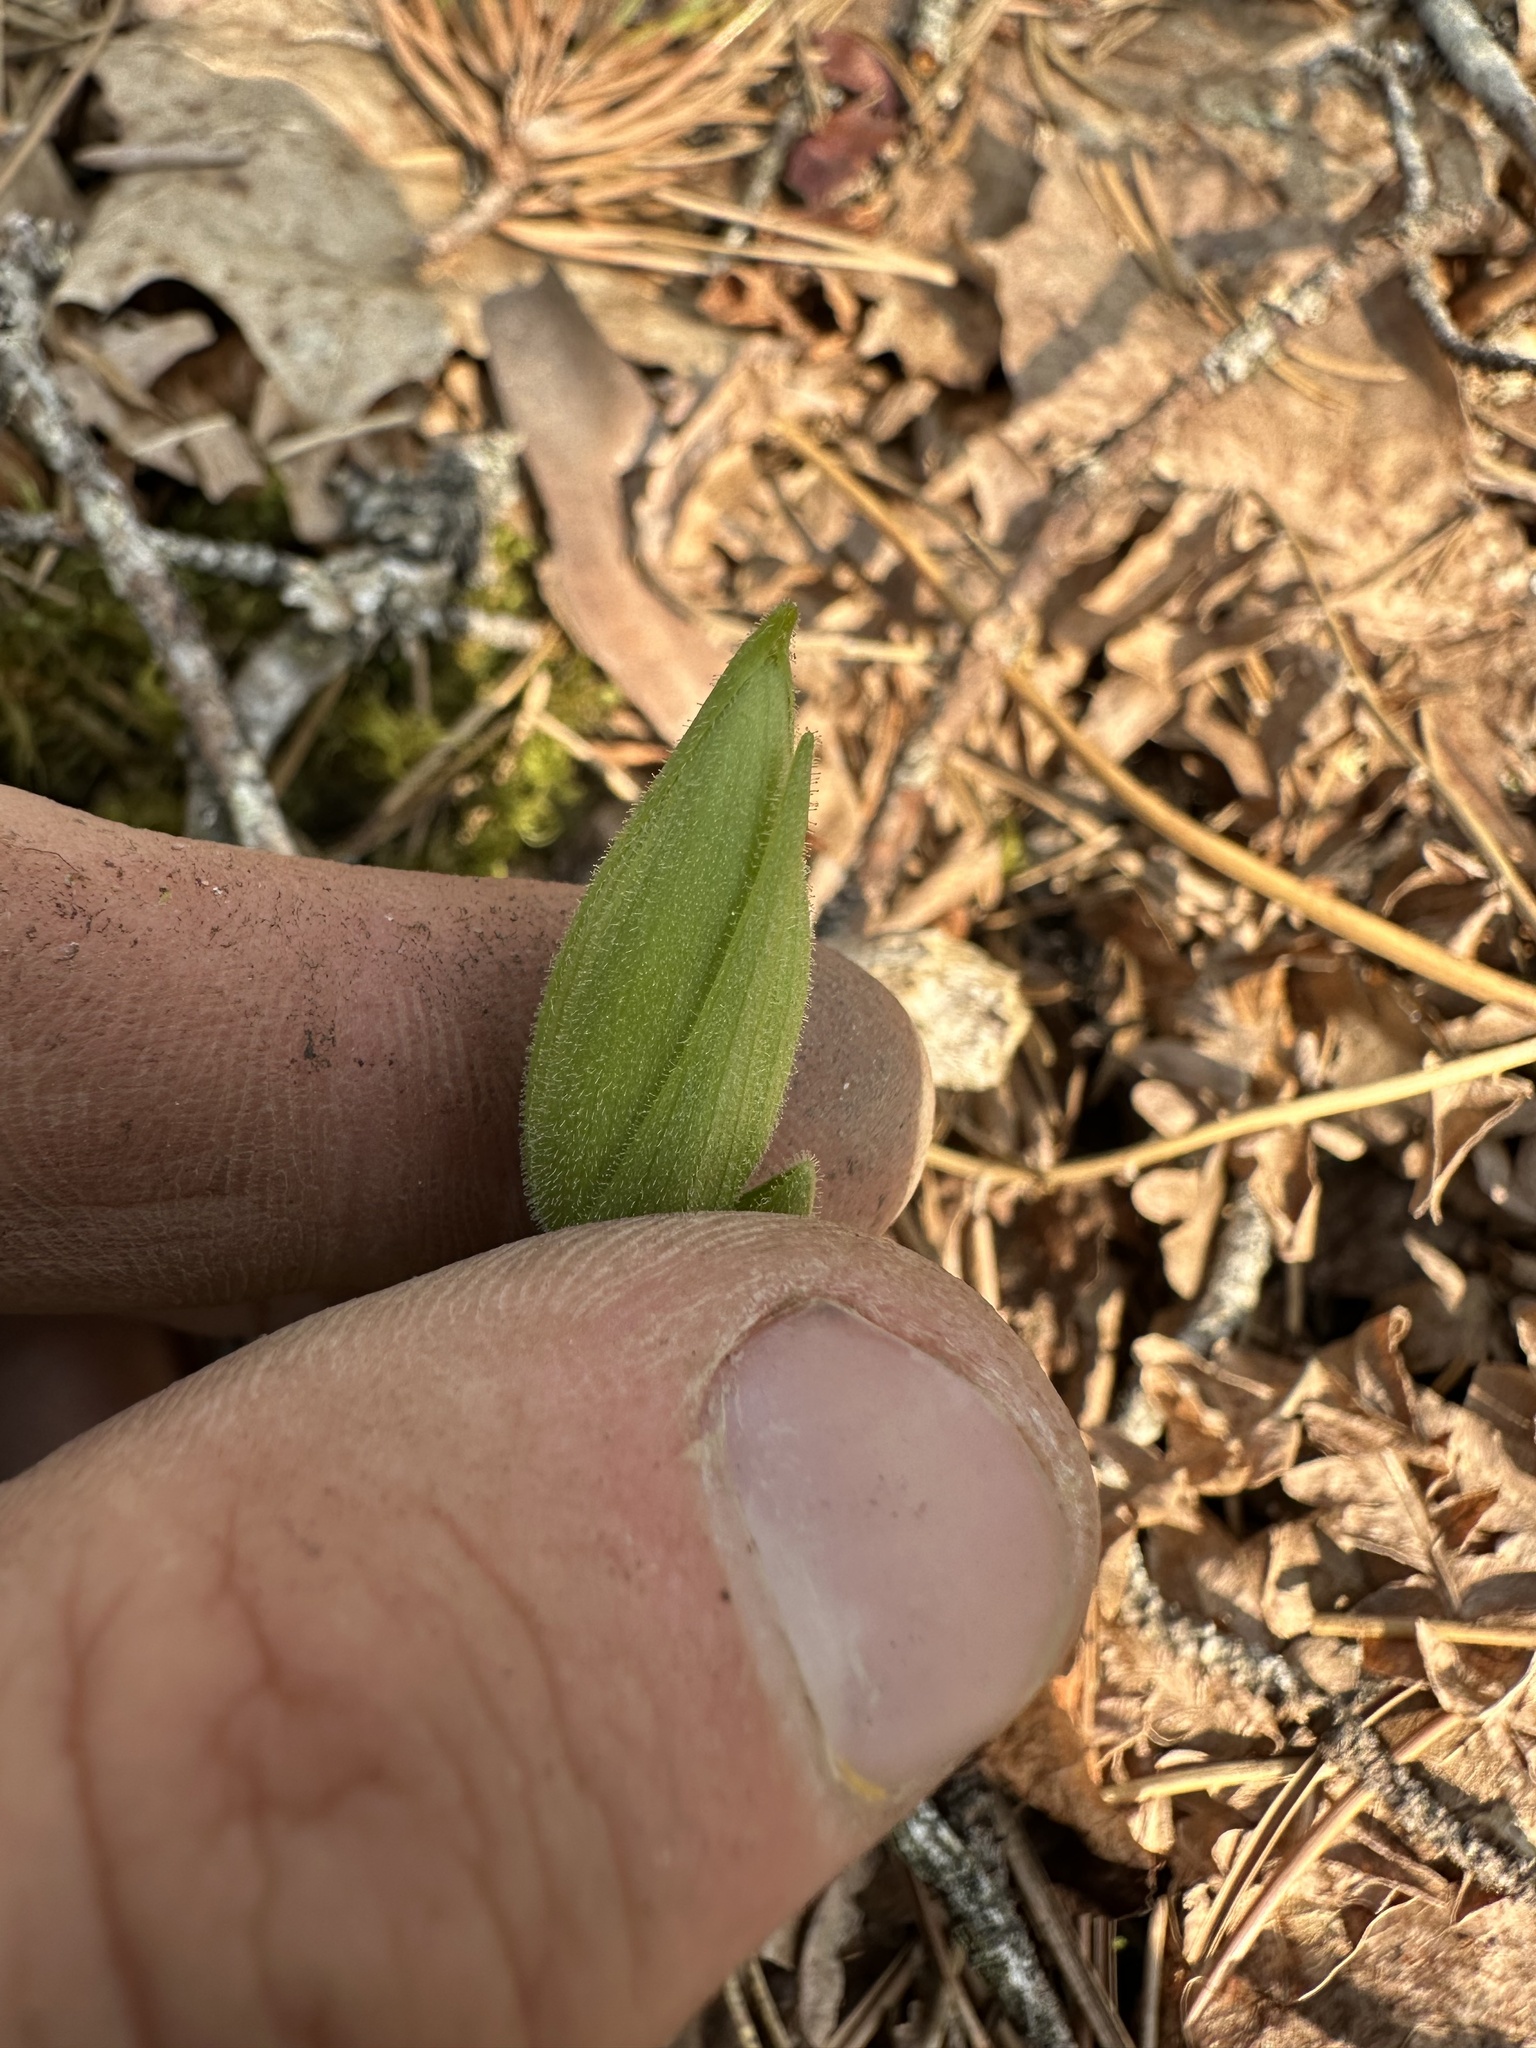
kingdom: Plantae
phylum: Tracheophyta
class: Liliopsida
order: Asparagales
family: Orchidaceae
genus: Cypripedium
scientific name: Cypripedium acaule
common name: Pink lady's-slipper
